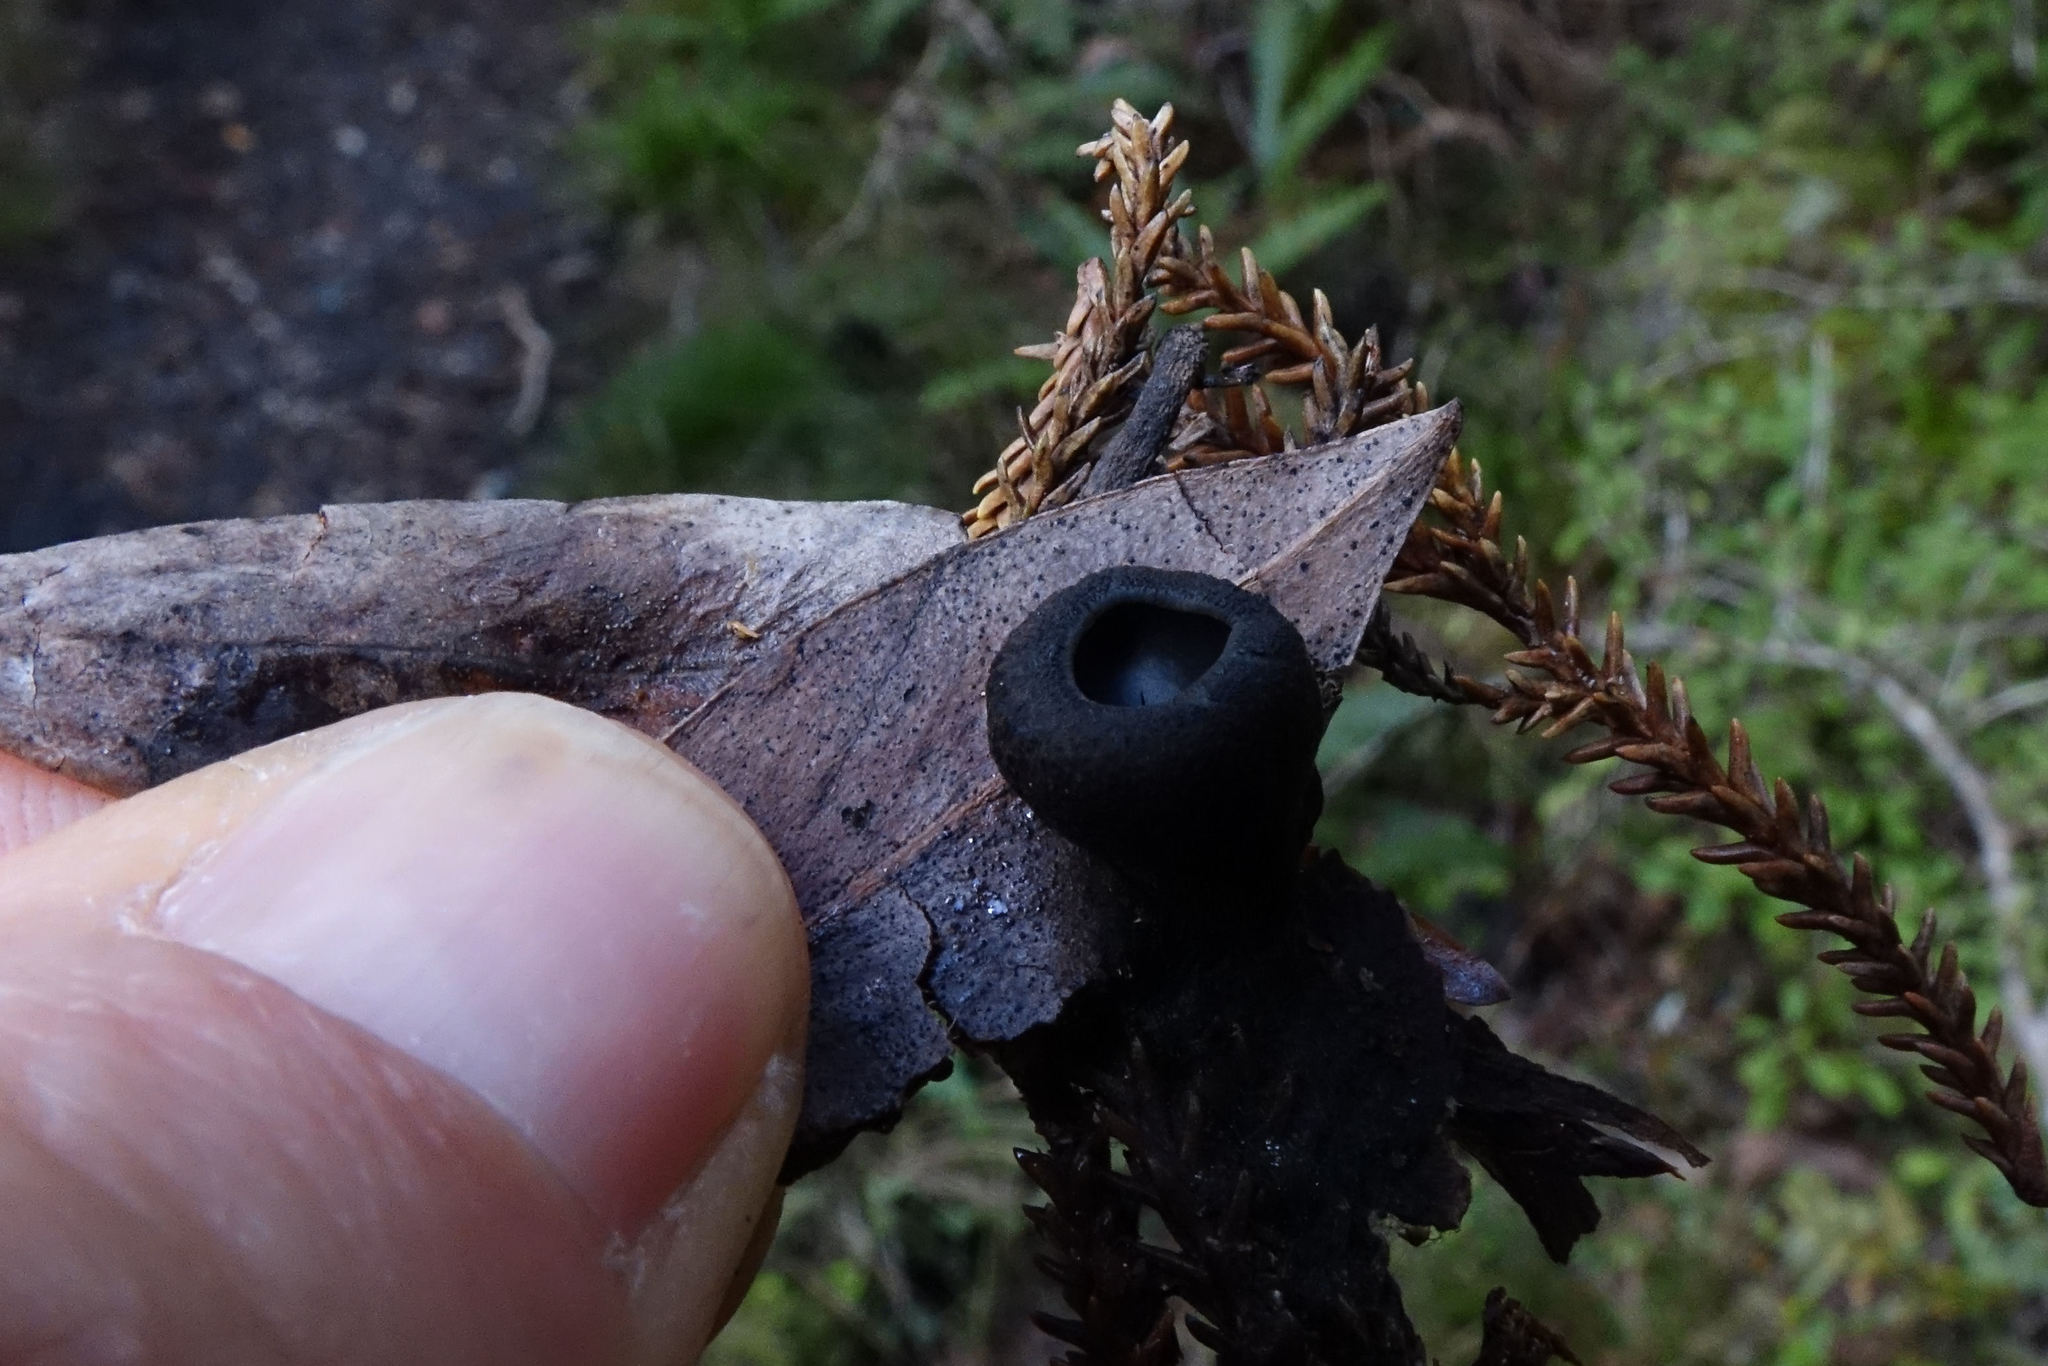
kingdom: Fungi
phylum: Ascomycota
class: Pezizomycetes
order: Pezizales
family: Sarcosomataceae
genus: Plectania
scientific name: Plectania rhytidia
